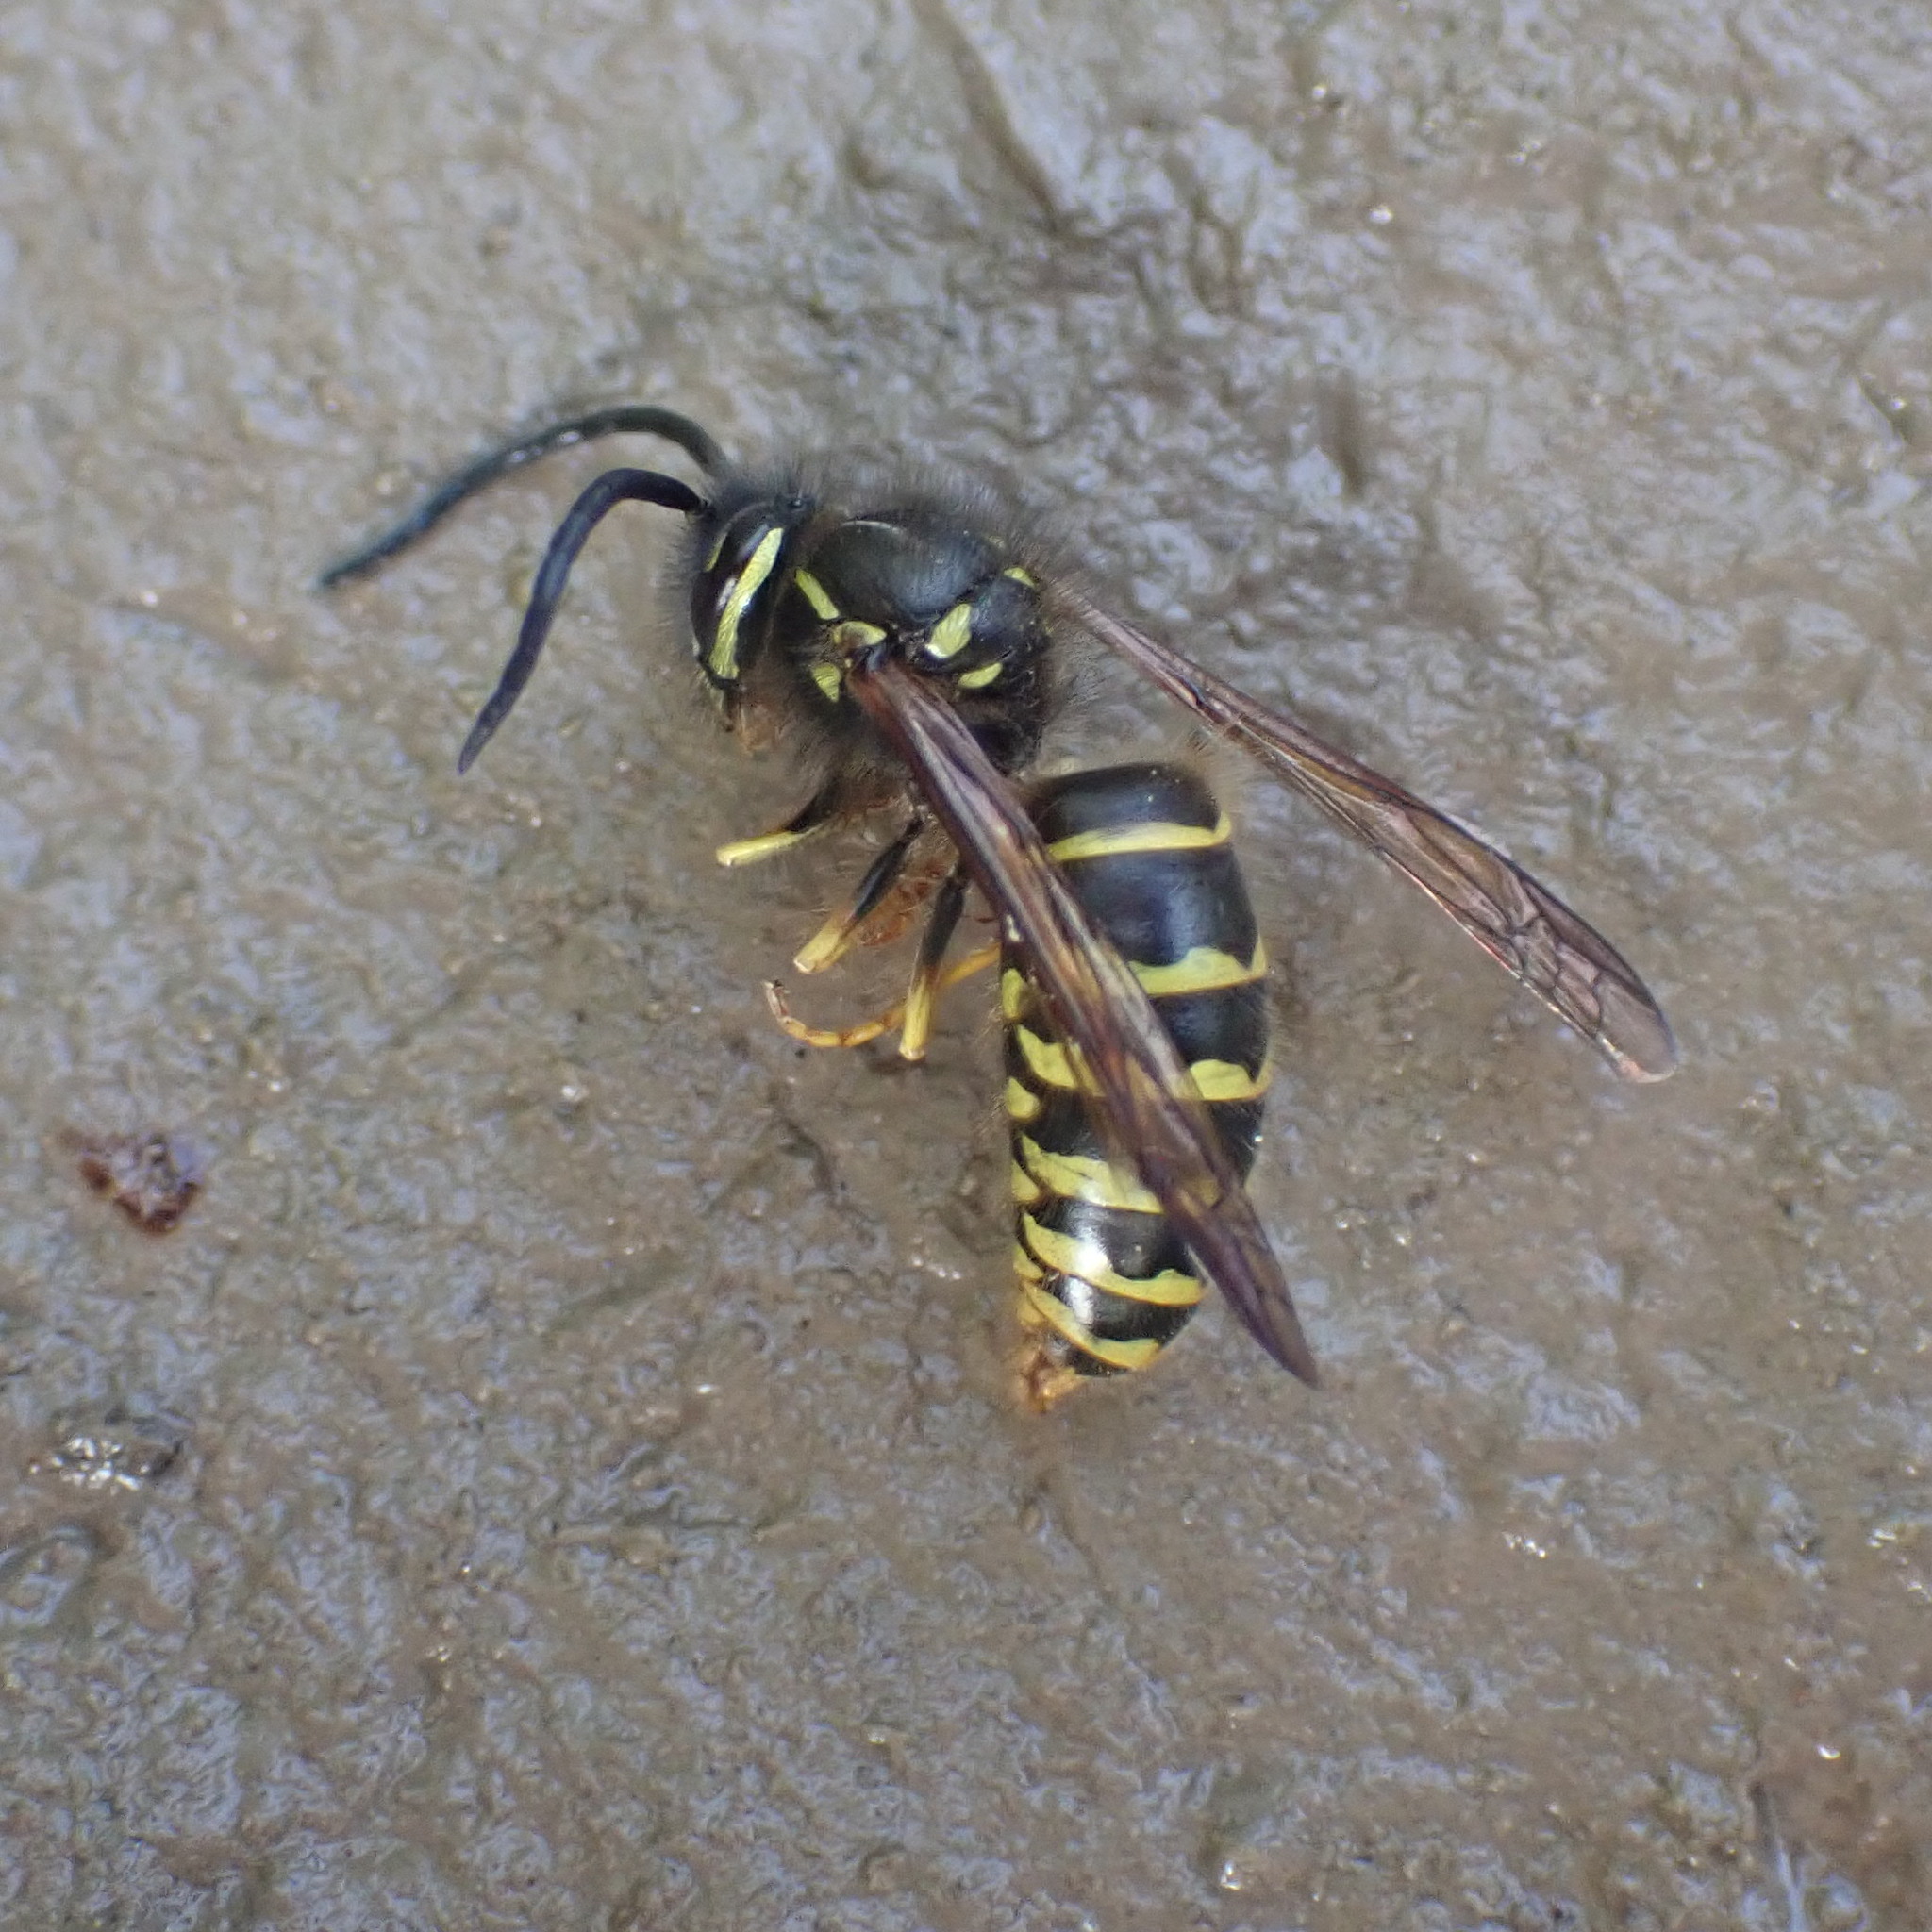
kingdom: Animalia
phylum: Arthropoda
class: Insecta
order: Hymenoptera
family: Vespidae
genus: Vespula
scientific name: Vespula alascensis
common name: Alaska yellowjacket
